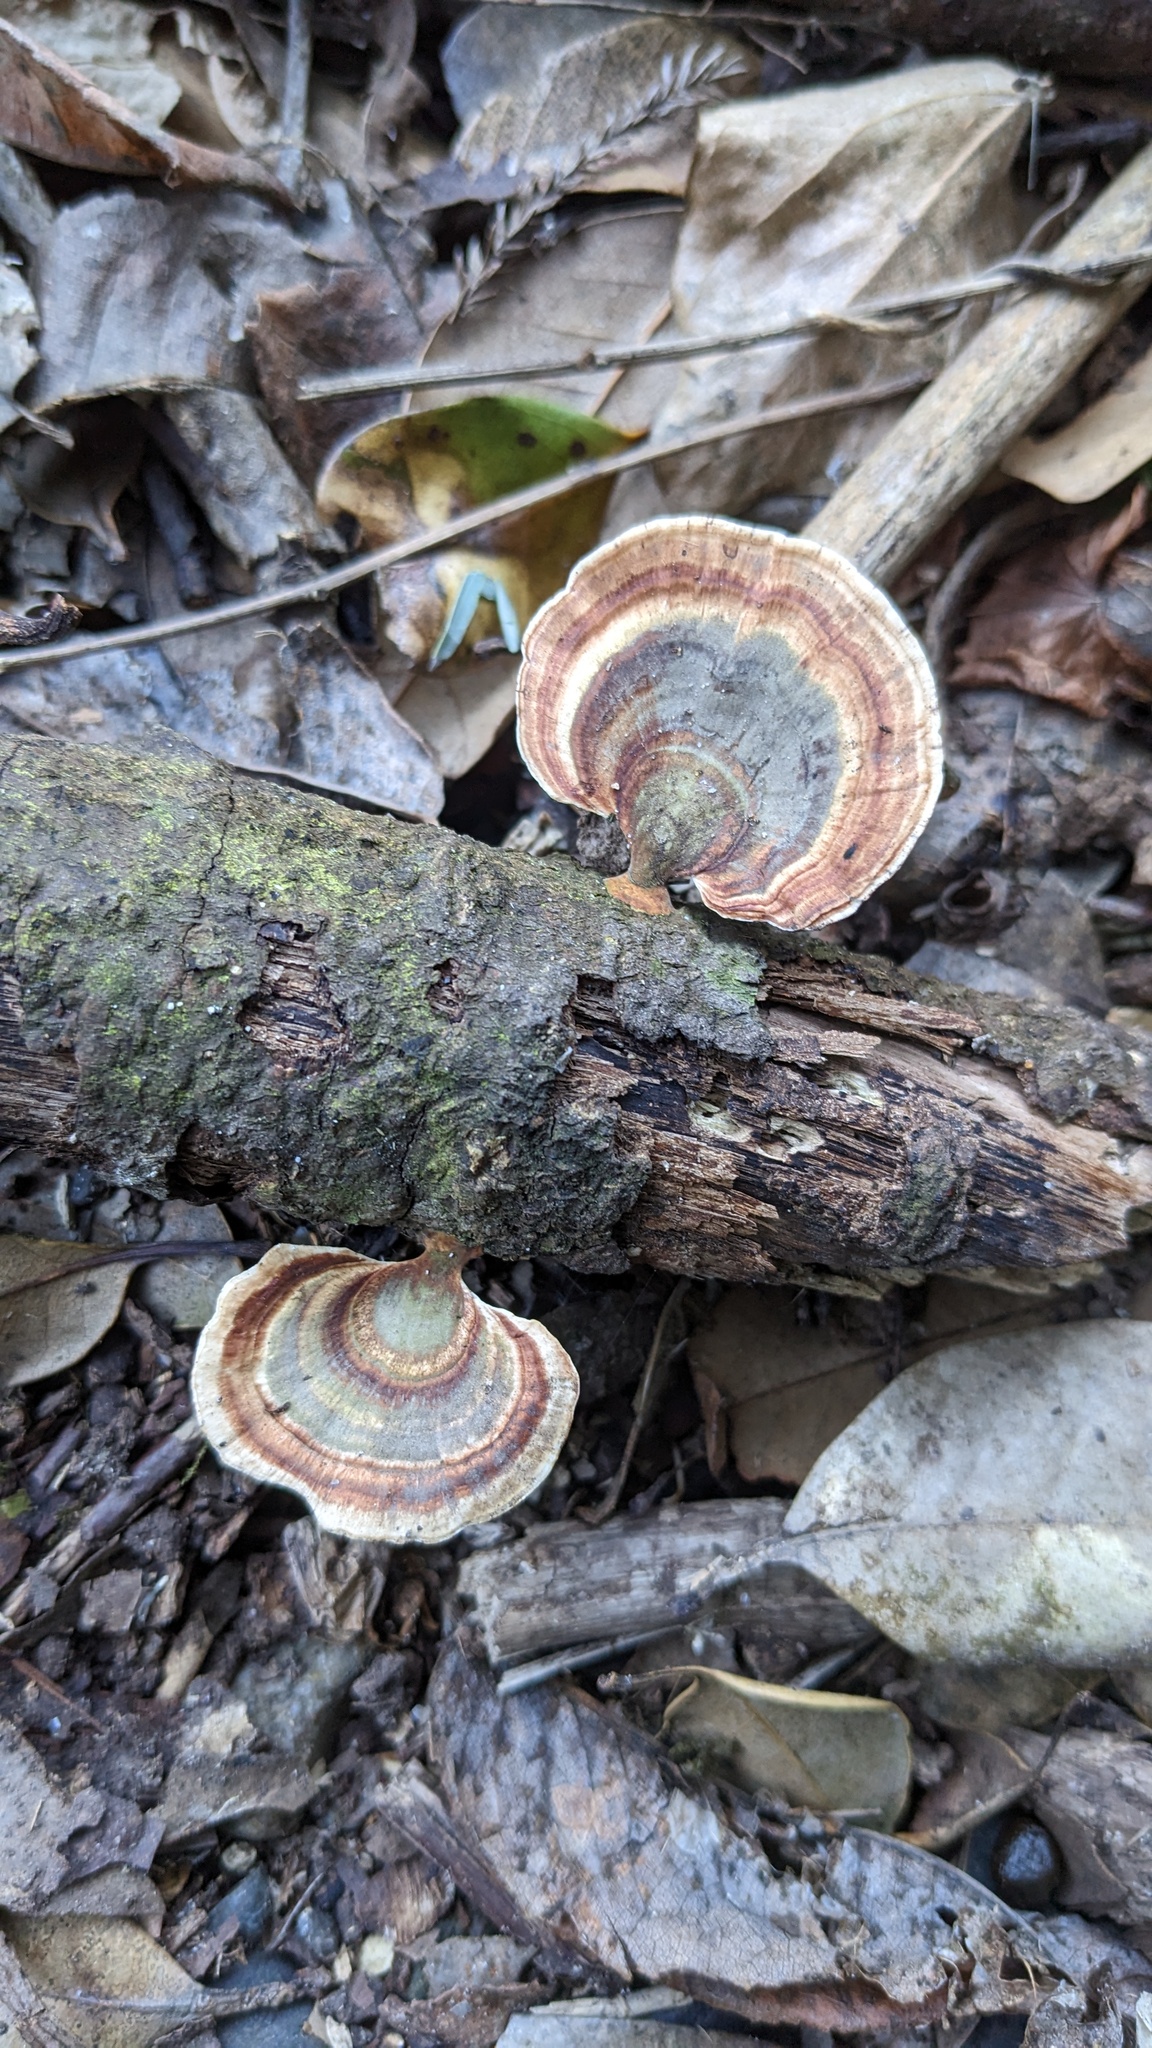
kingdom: Fungi
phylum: Basidiomycota
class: Agaricomycetes
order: Polyporales
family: Polyporaceae
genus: Microporus
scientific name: Microporus affinis
